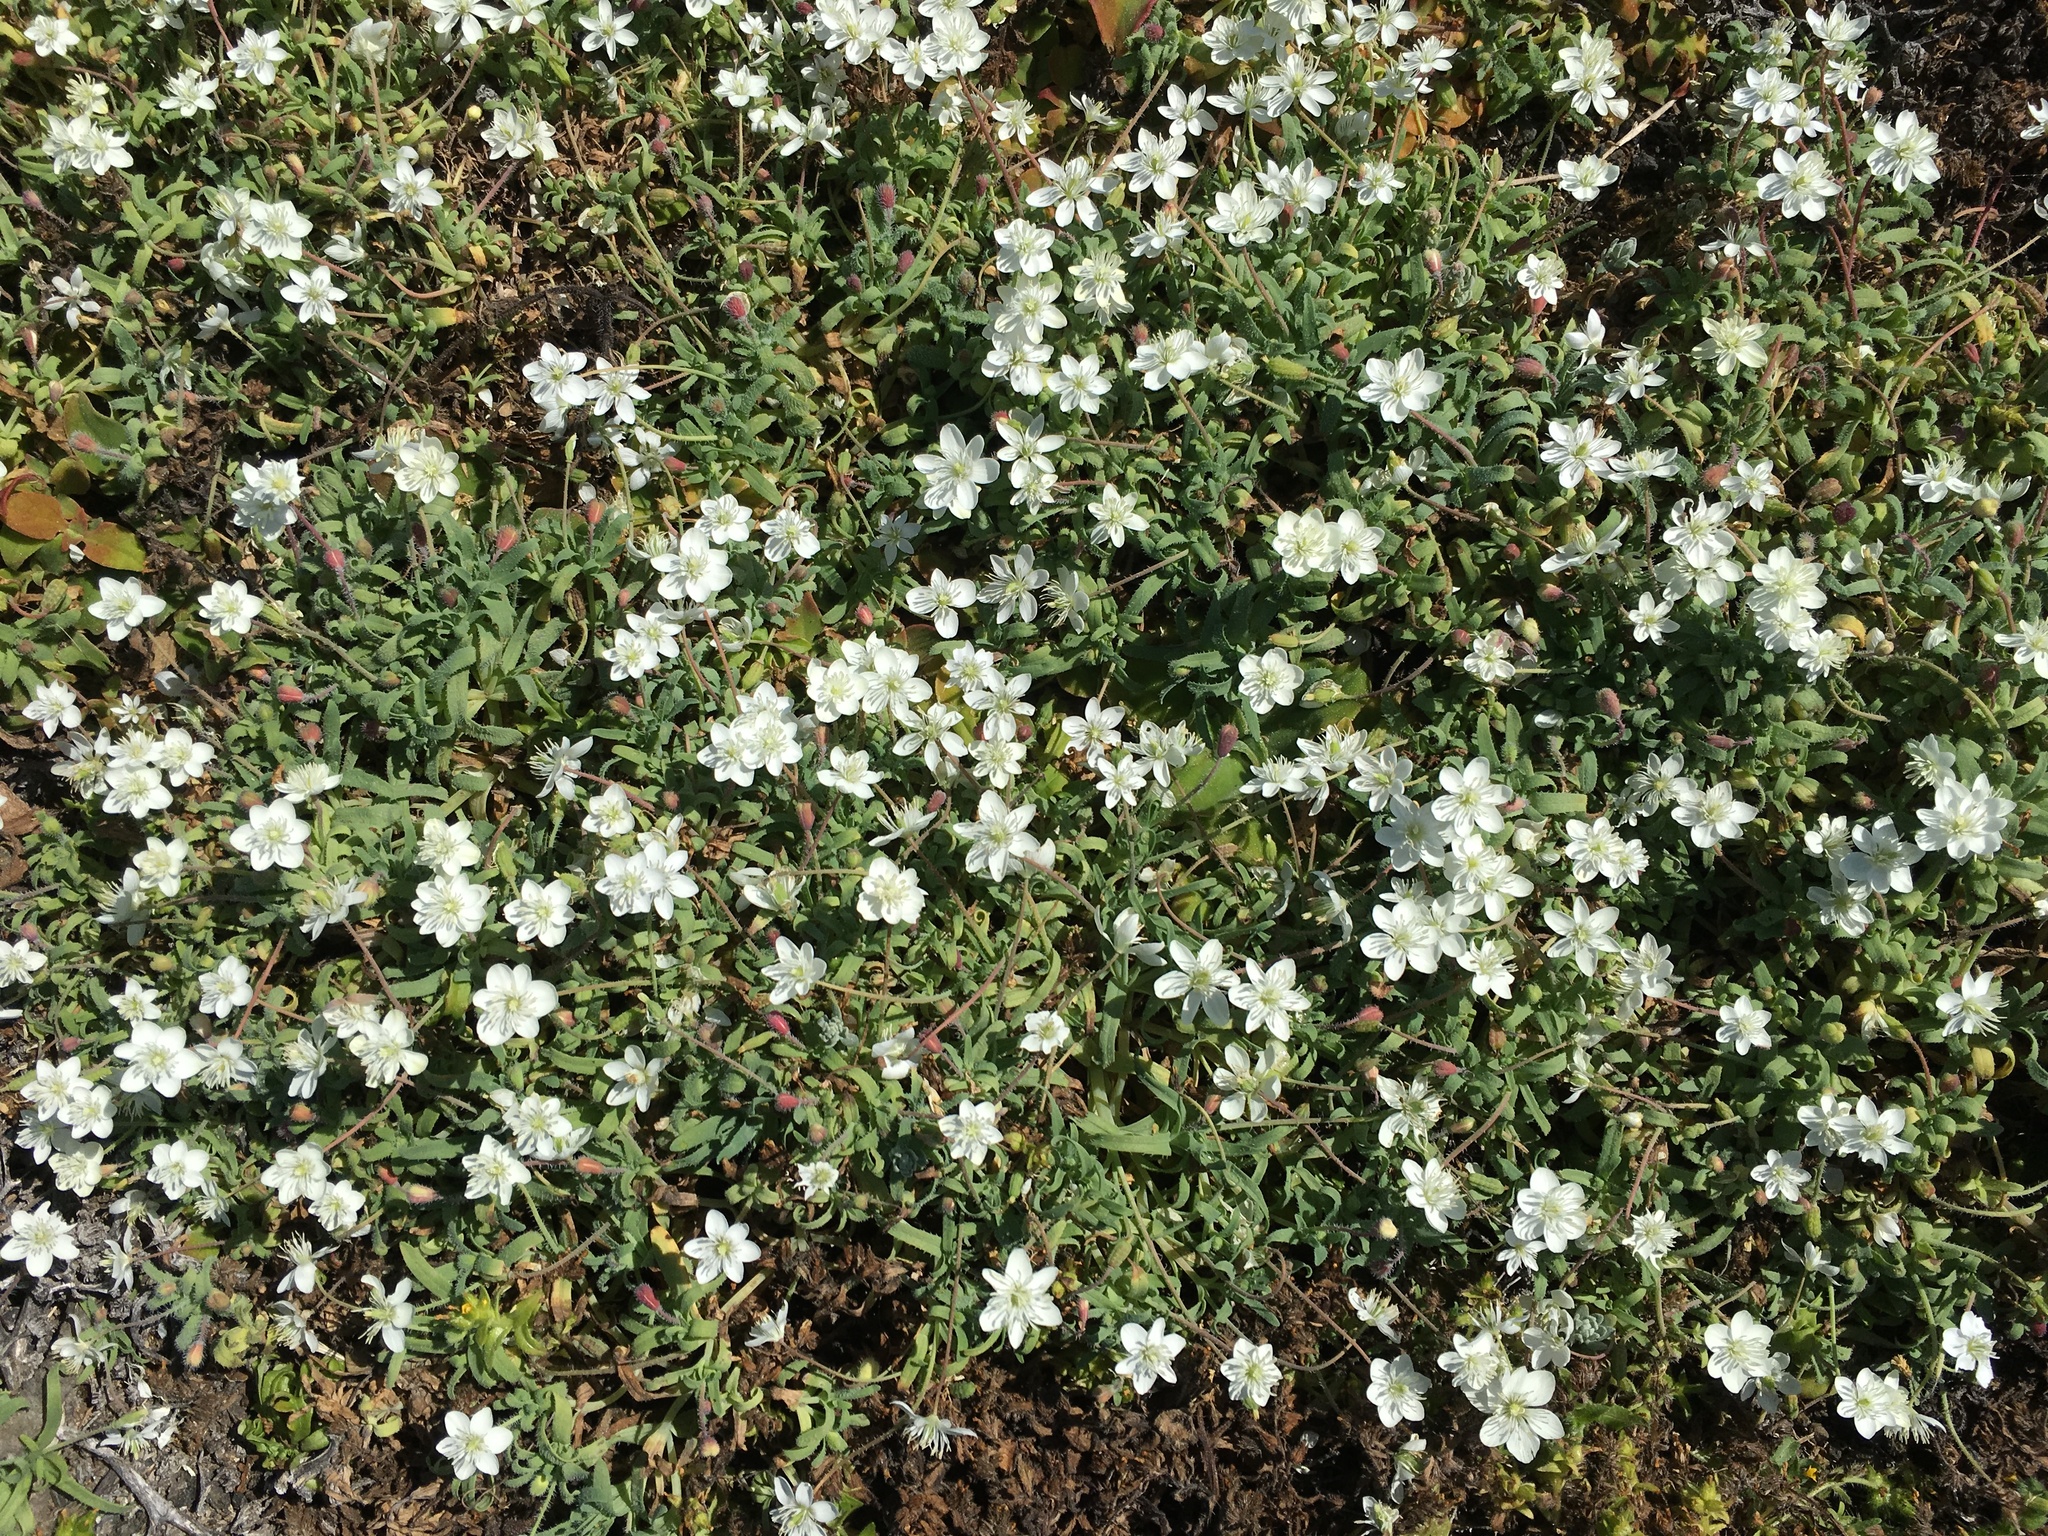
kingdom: Plantae
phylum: Tracheophyta
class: Magnoliopsida
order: Ranunculales
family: Papaveraceae
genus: Platystemon
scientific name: Platystemon californicus
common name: Cream-cups
